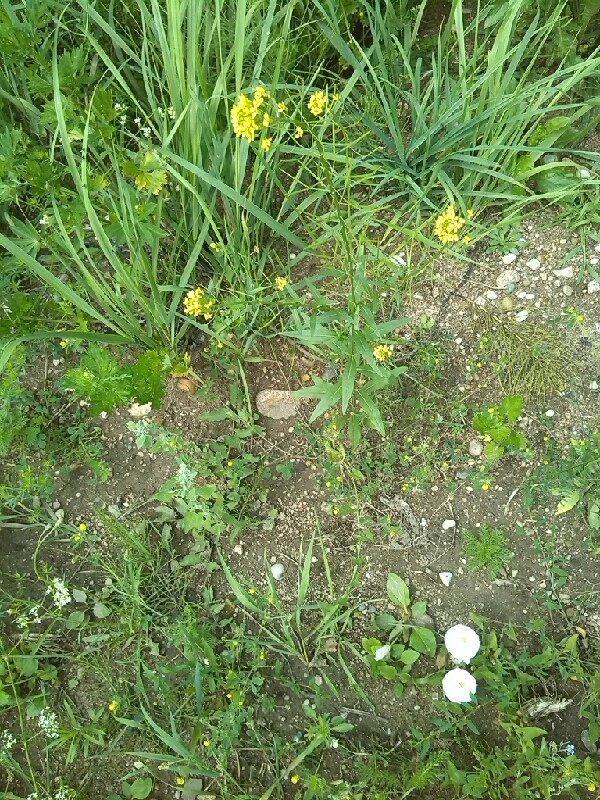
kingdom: Plantae
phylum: Tracheophyta
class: Magnoliopsida
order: Brassicales
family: Brassicaceae
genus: Erysimum
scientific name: Erysimum cheiranthoides
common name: Treacle mustard
